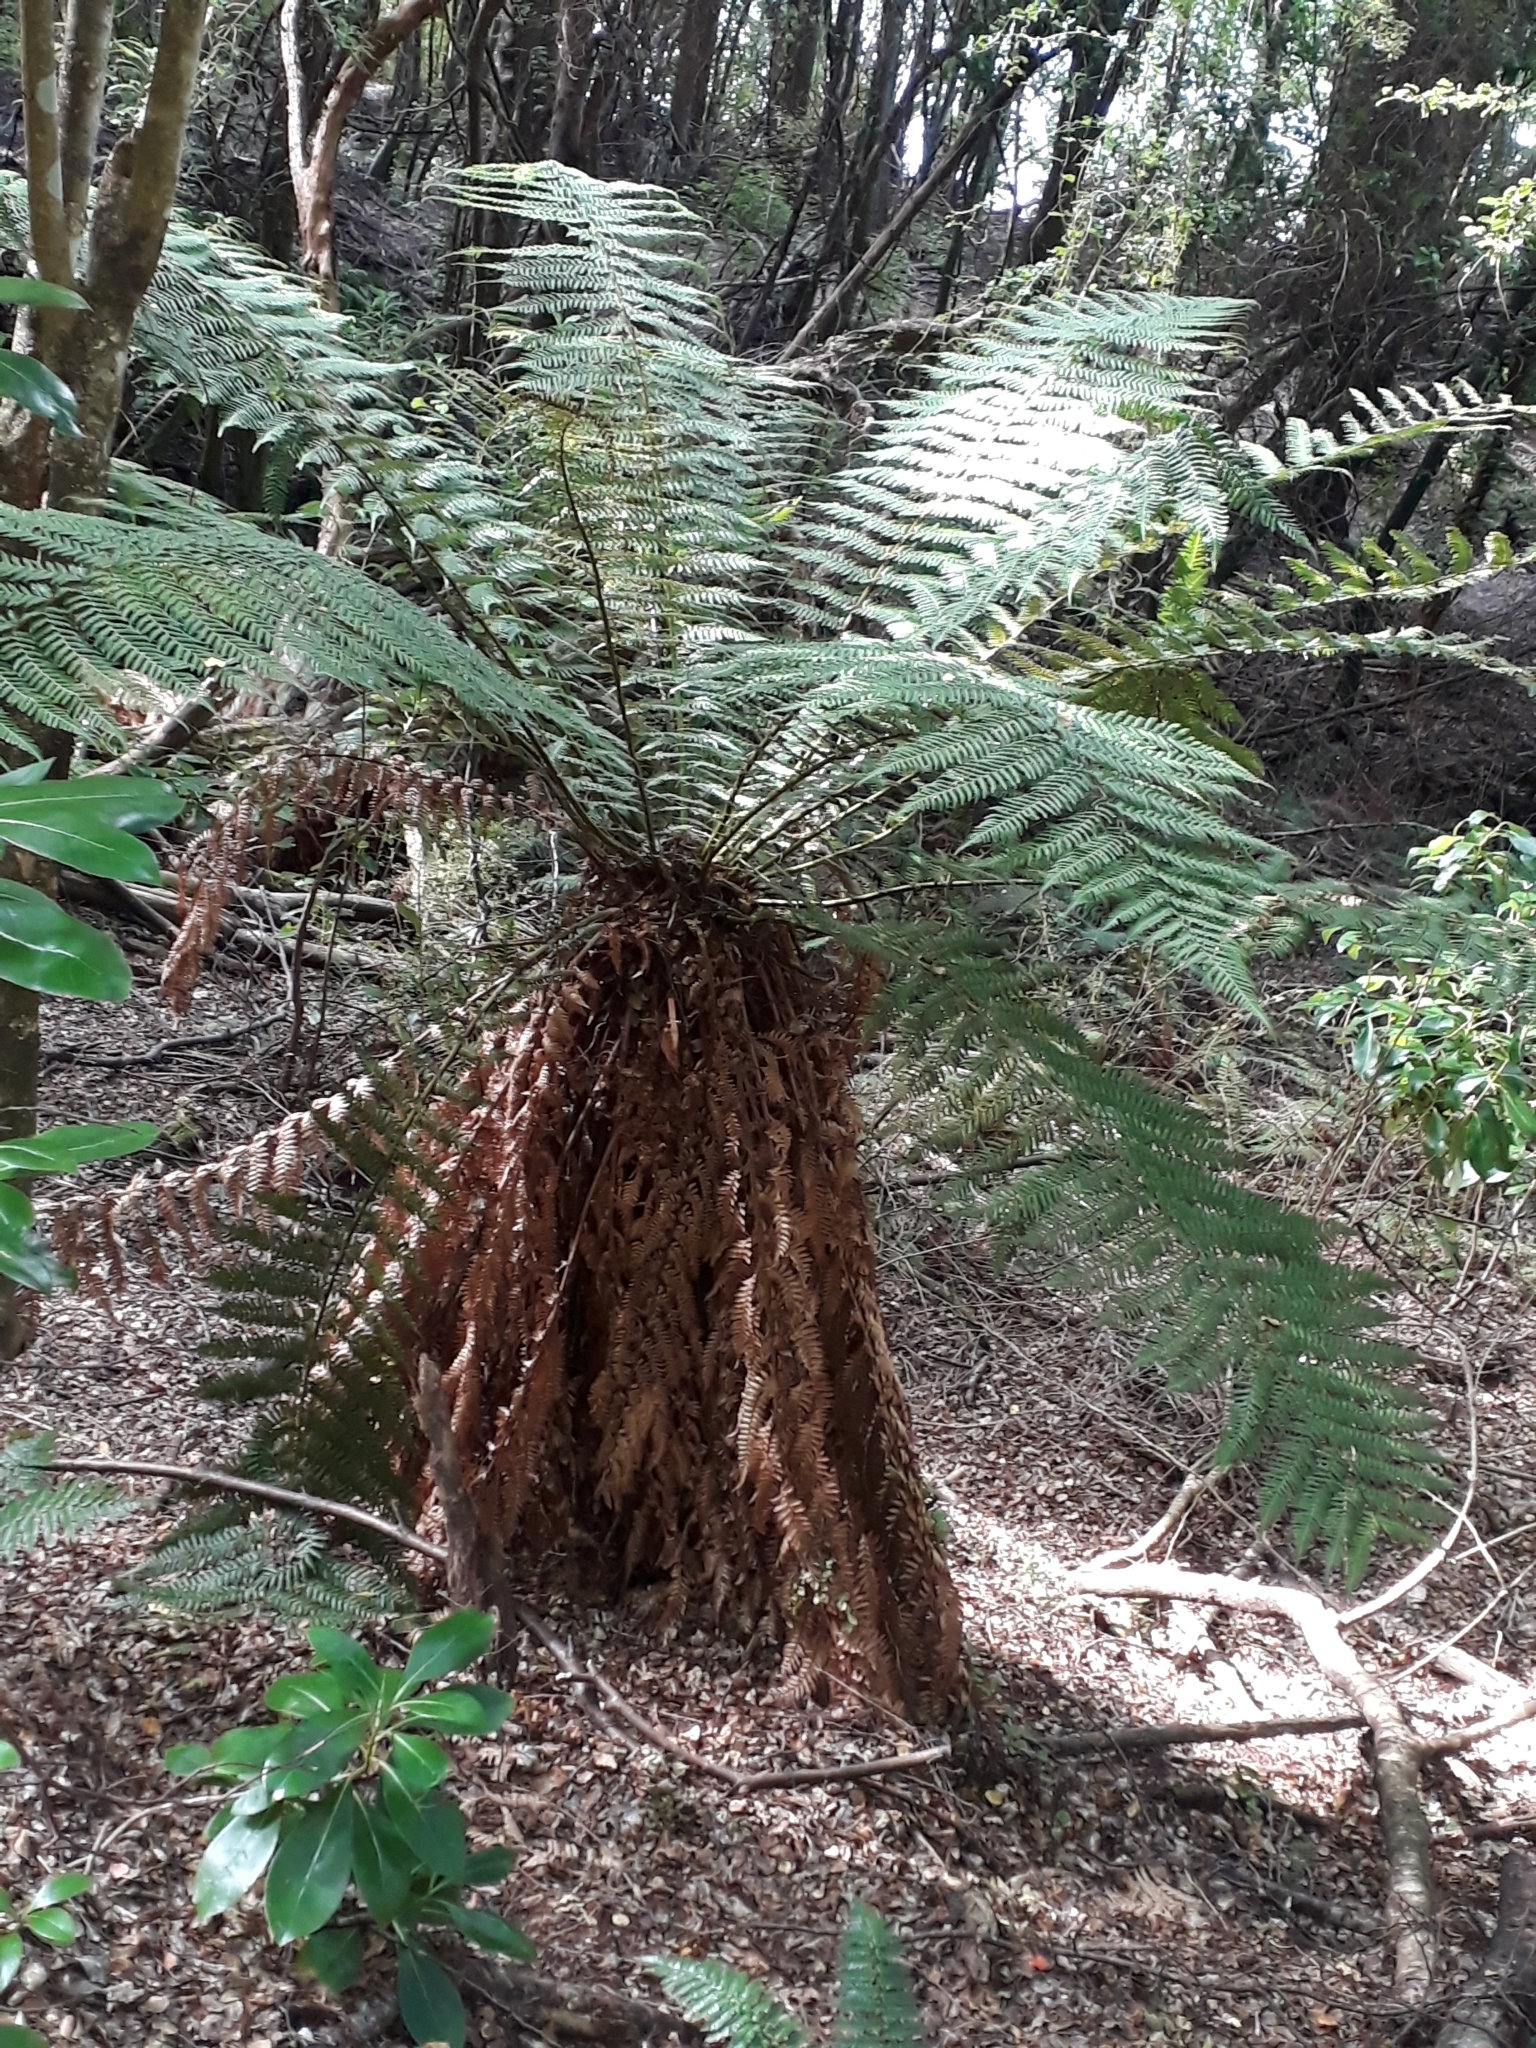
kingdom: Plantae
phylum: Tracheophyta
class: Polypodiopsida
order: Cyatheales
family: Dicksoniaceae
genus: Dicksonia
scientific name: Dicksonia fibrosa
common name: Golden tree fern
